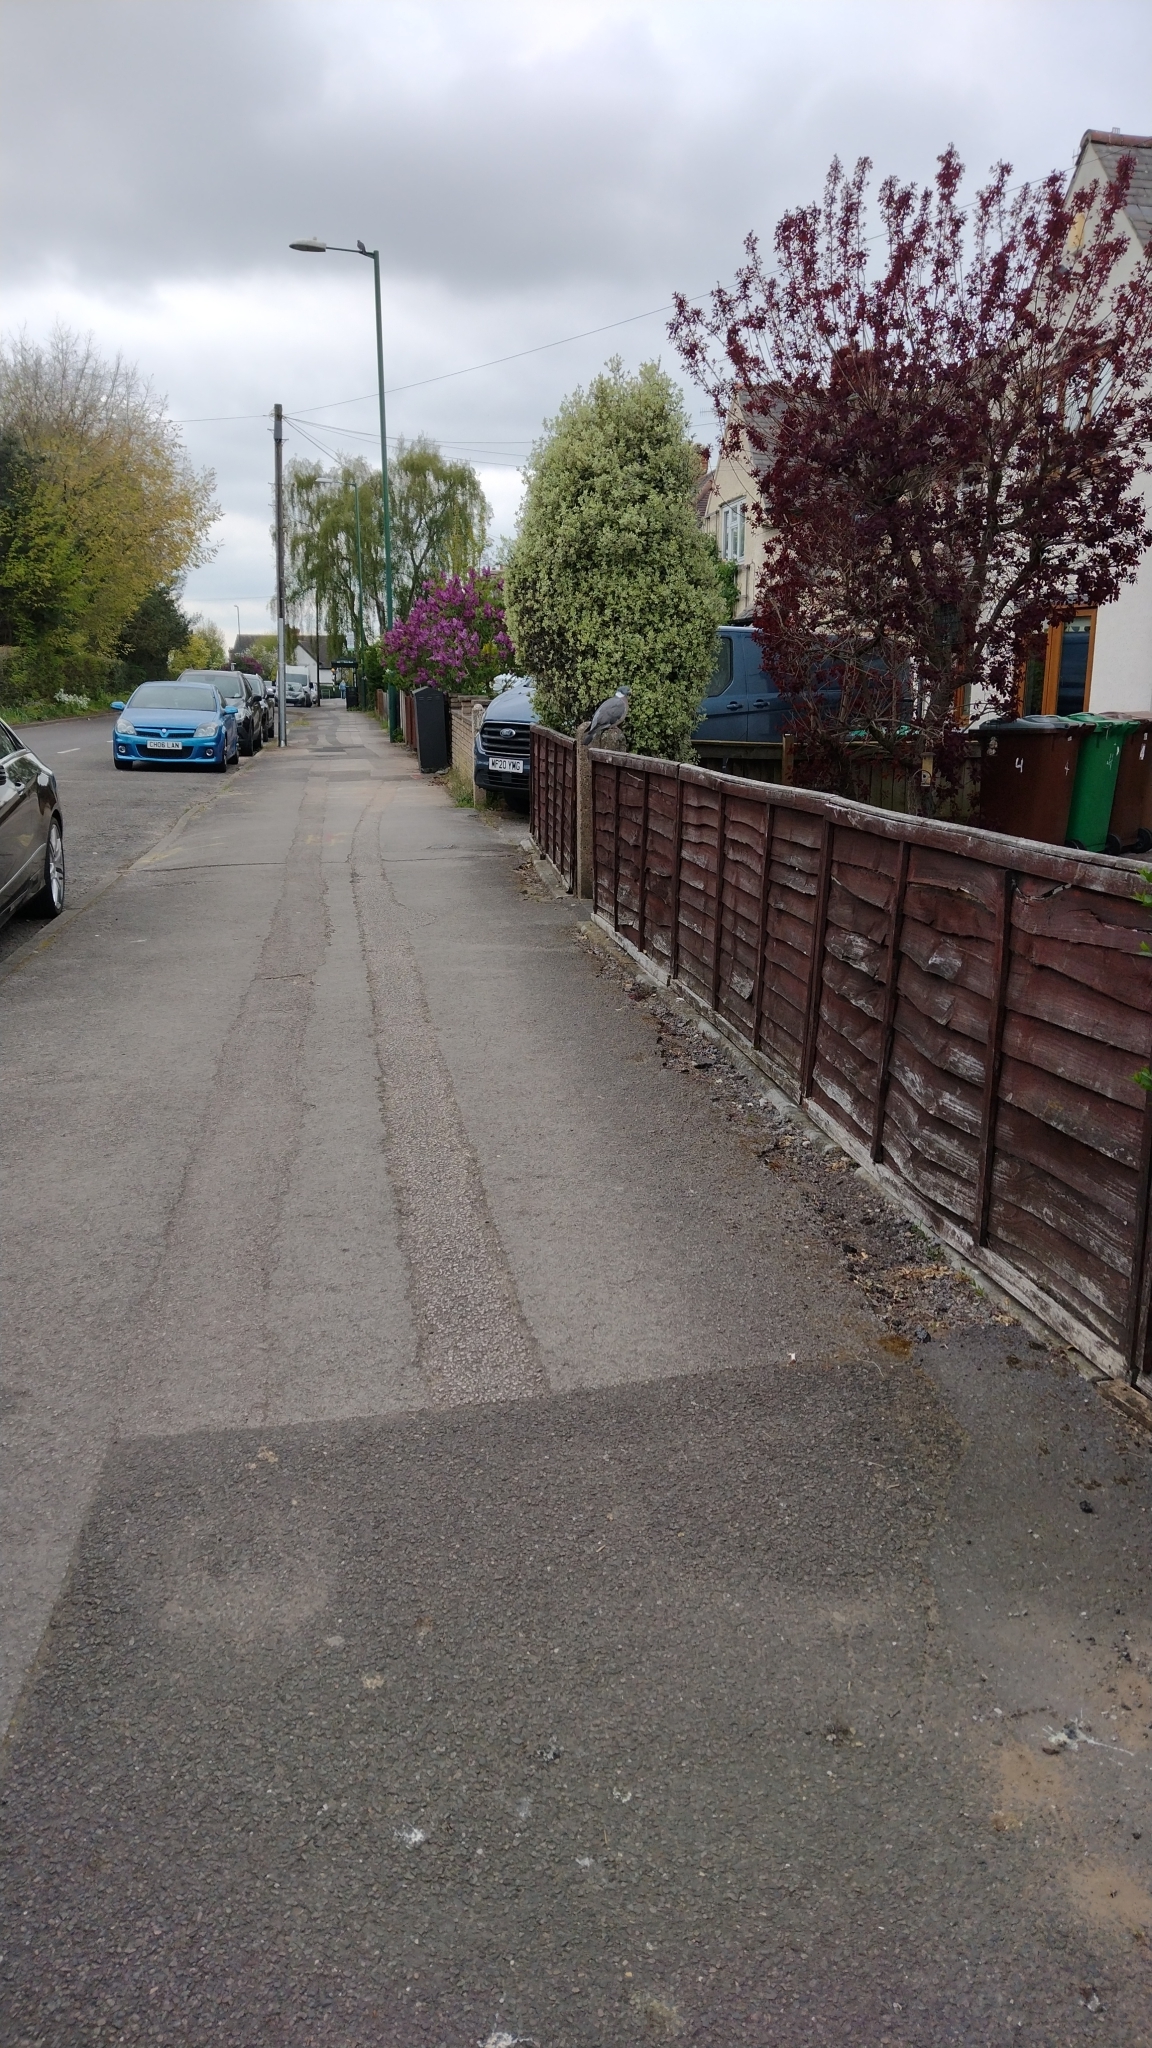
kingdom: Animalia
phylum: Chordata
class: Aves
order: Columbiformes
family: Columbidae
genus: Columba
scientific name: Columba palumbus
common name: Common wood pigeon
